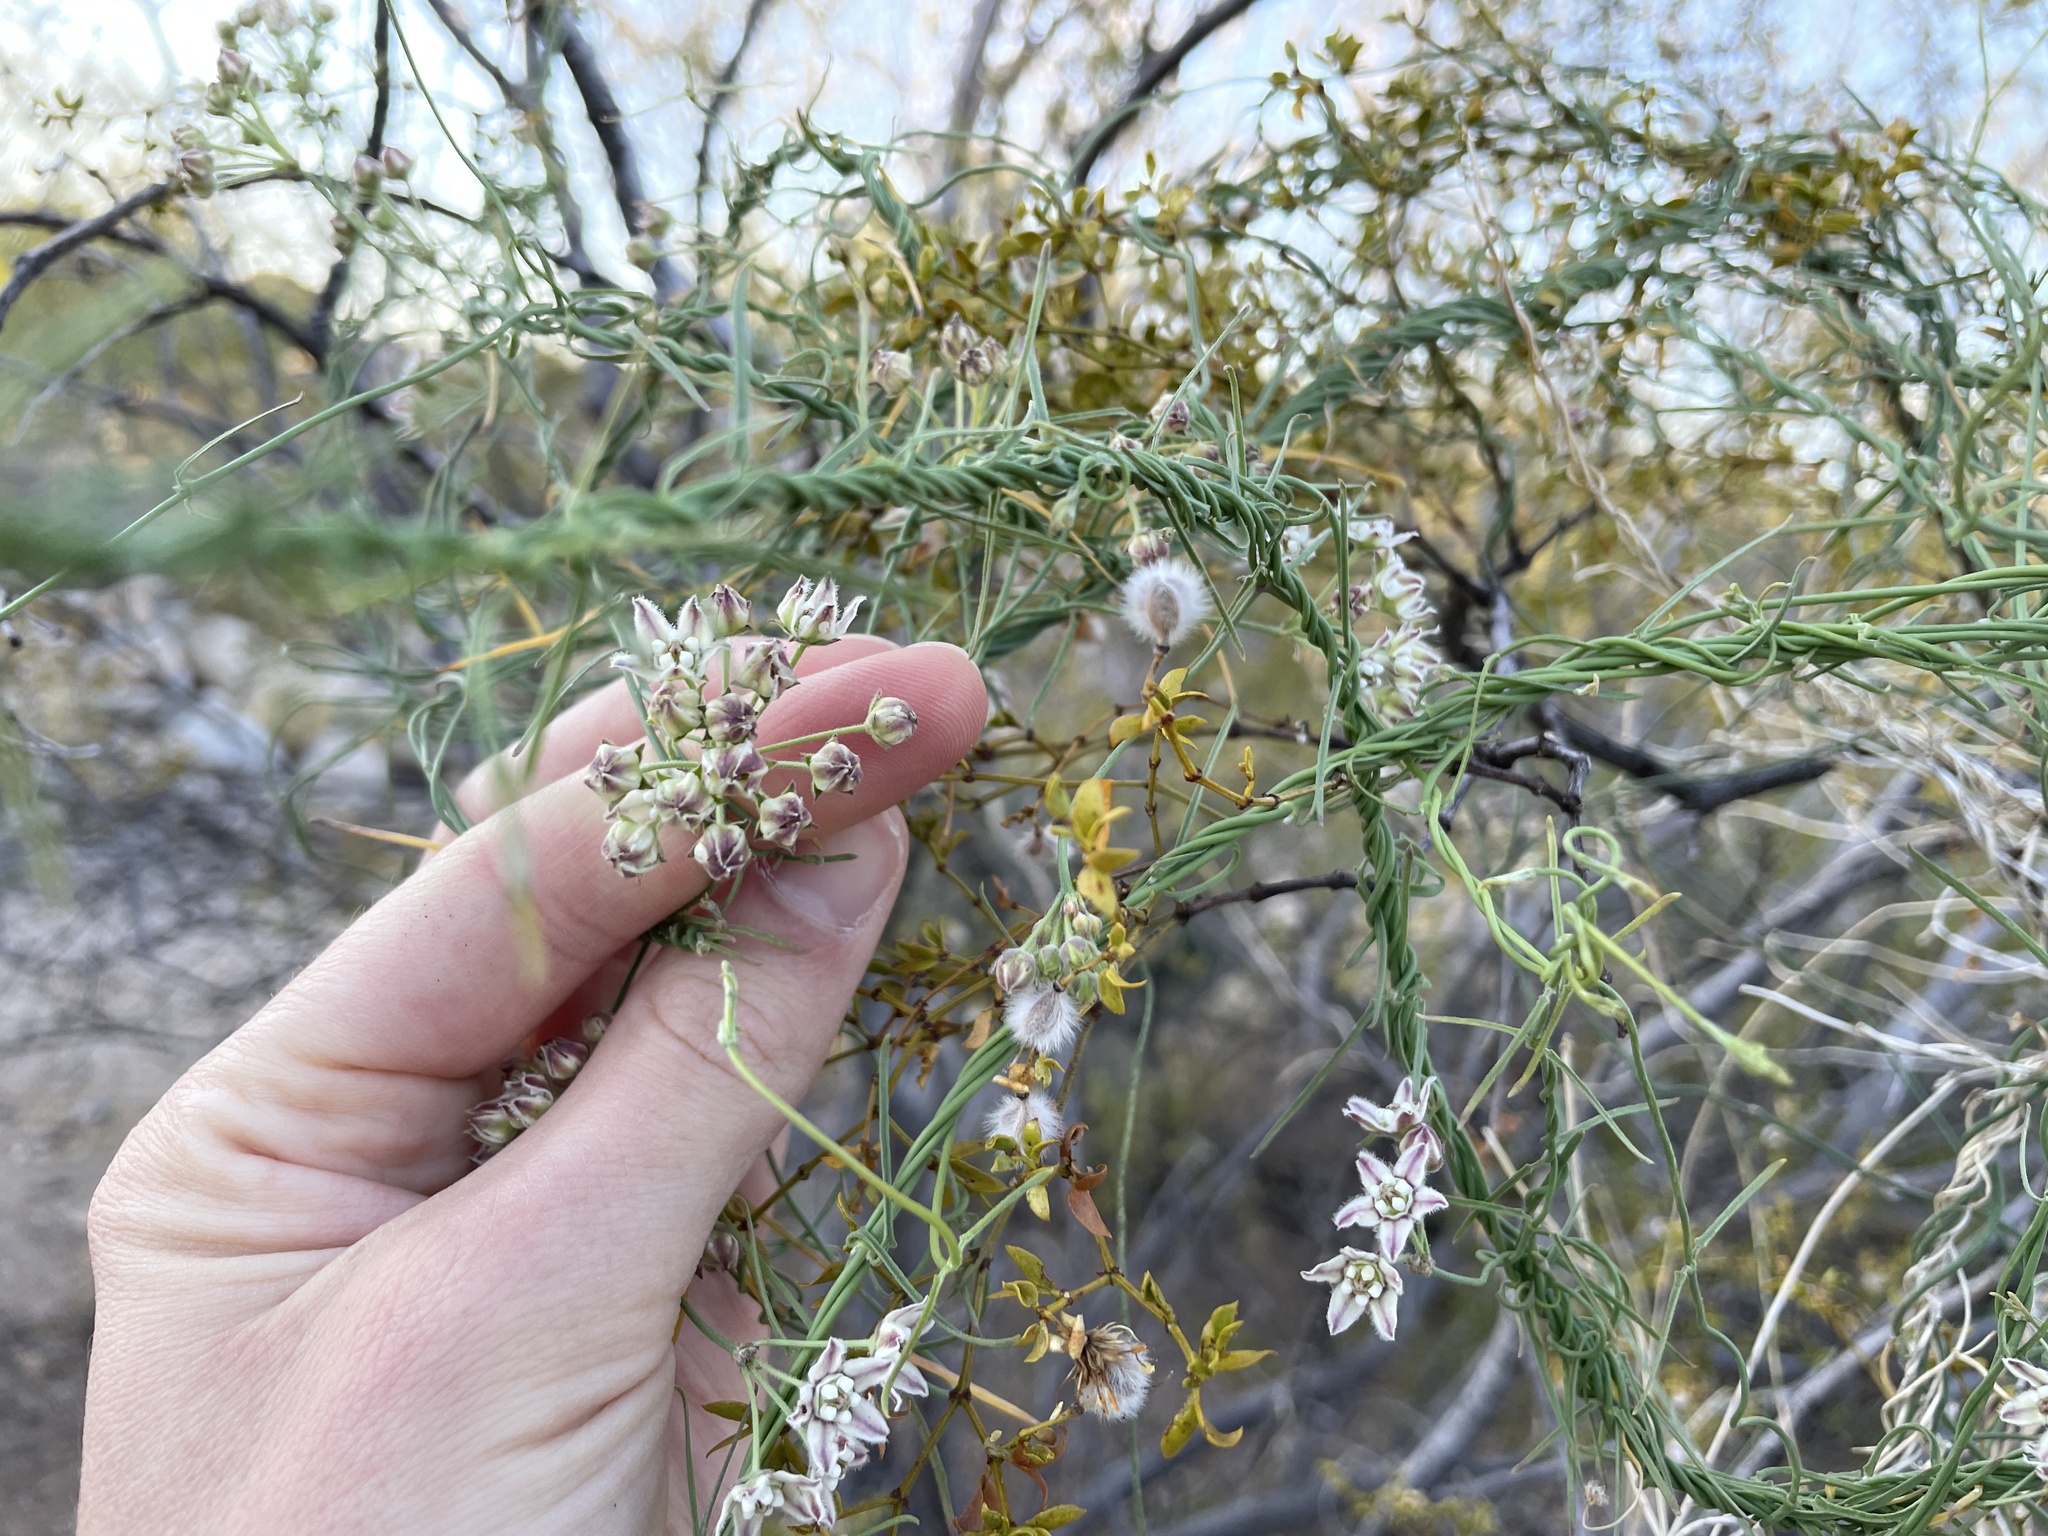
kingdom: Plantae
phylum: Tracheophyta
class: Magnoliopsida
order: Gentianales
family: Apocynaceae
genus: Funastrum
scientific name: Funastrum heterophyllum
